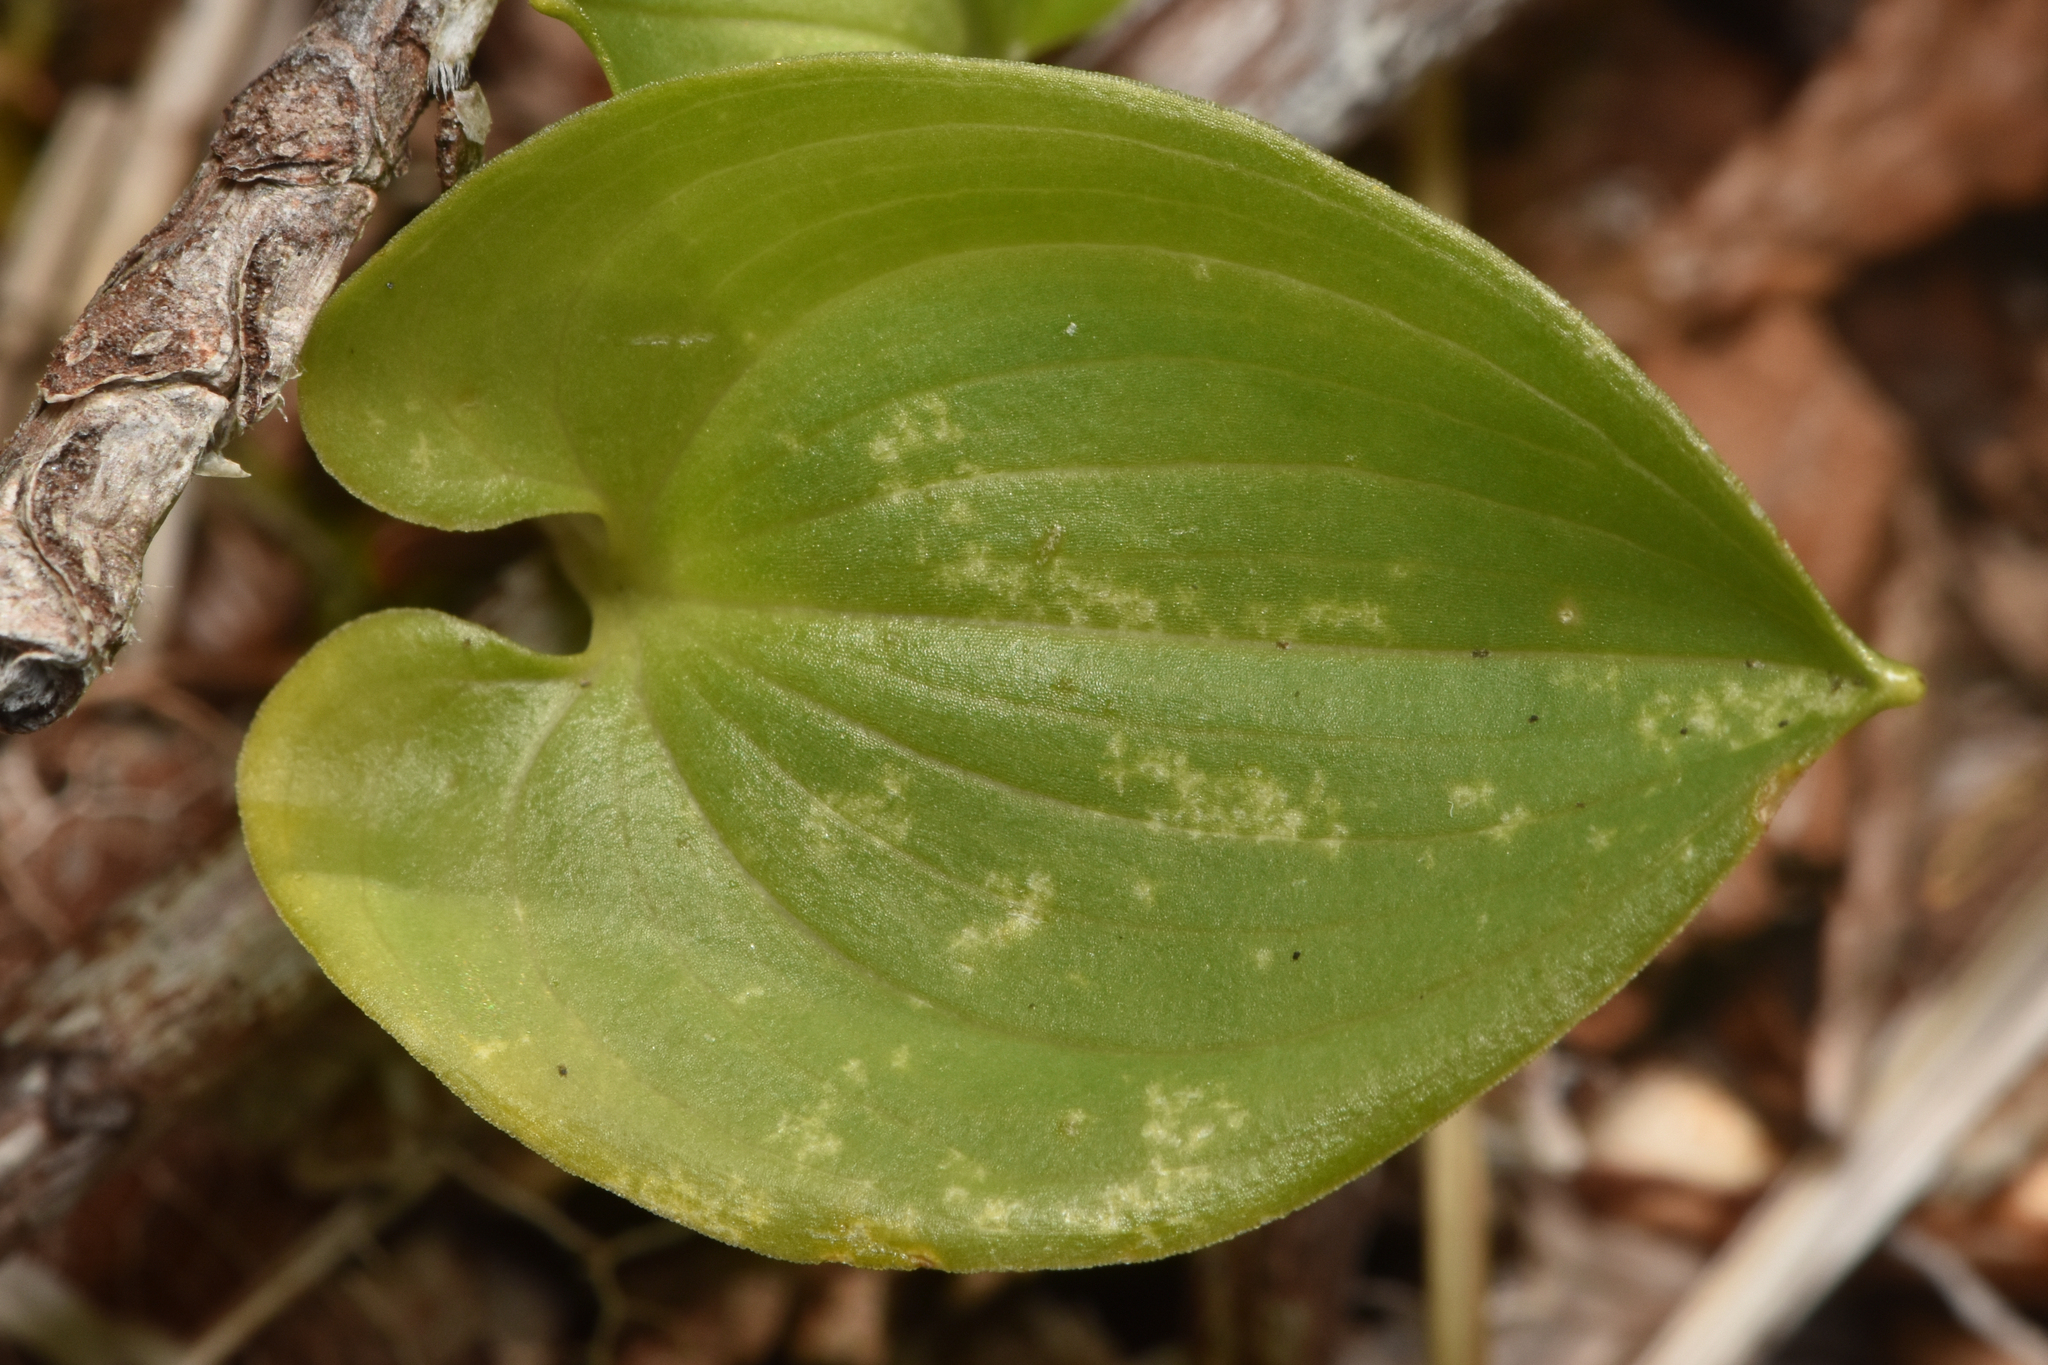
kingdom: Plantae
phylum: Tracheophyta
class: Liliopsida
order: Asparagales
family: Asparagaceae
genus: Maianthemum
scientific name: Maianthemum dilatatum
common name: False lily-of-the-valley
